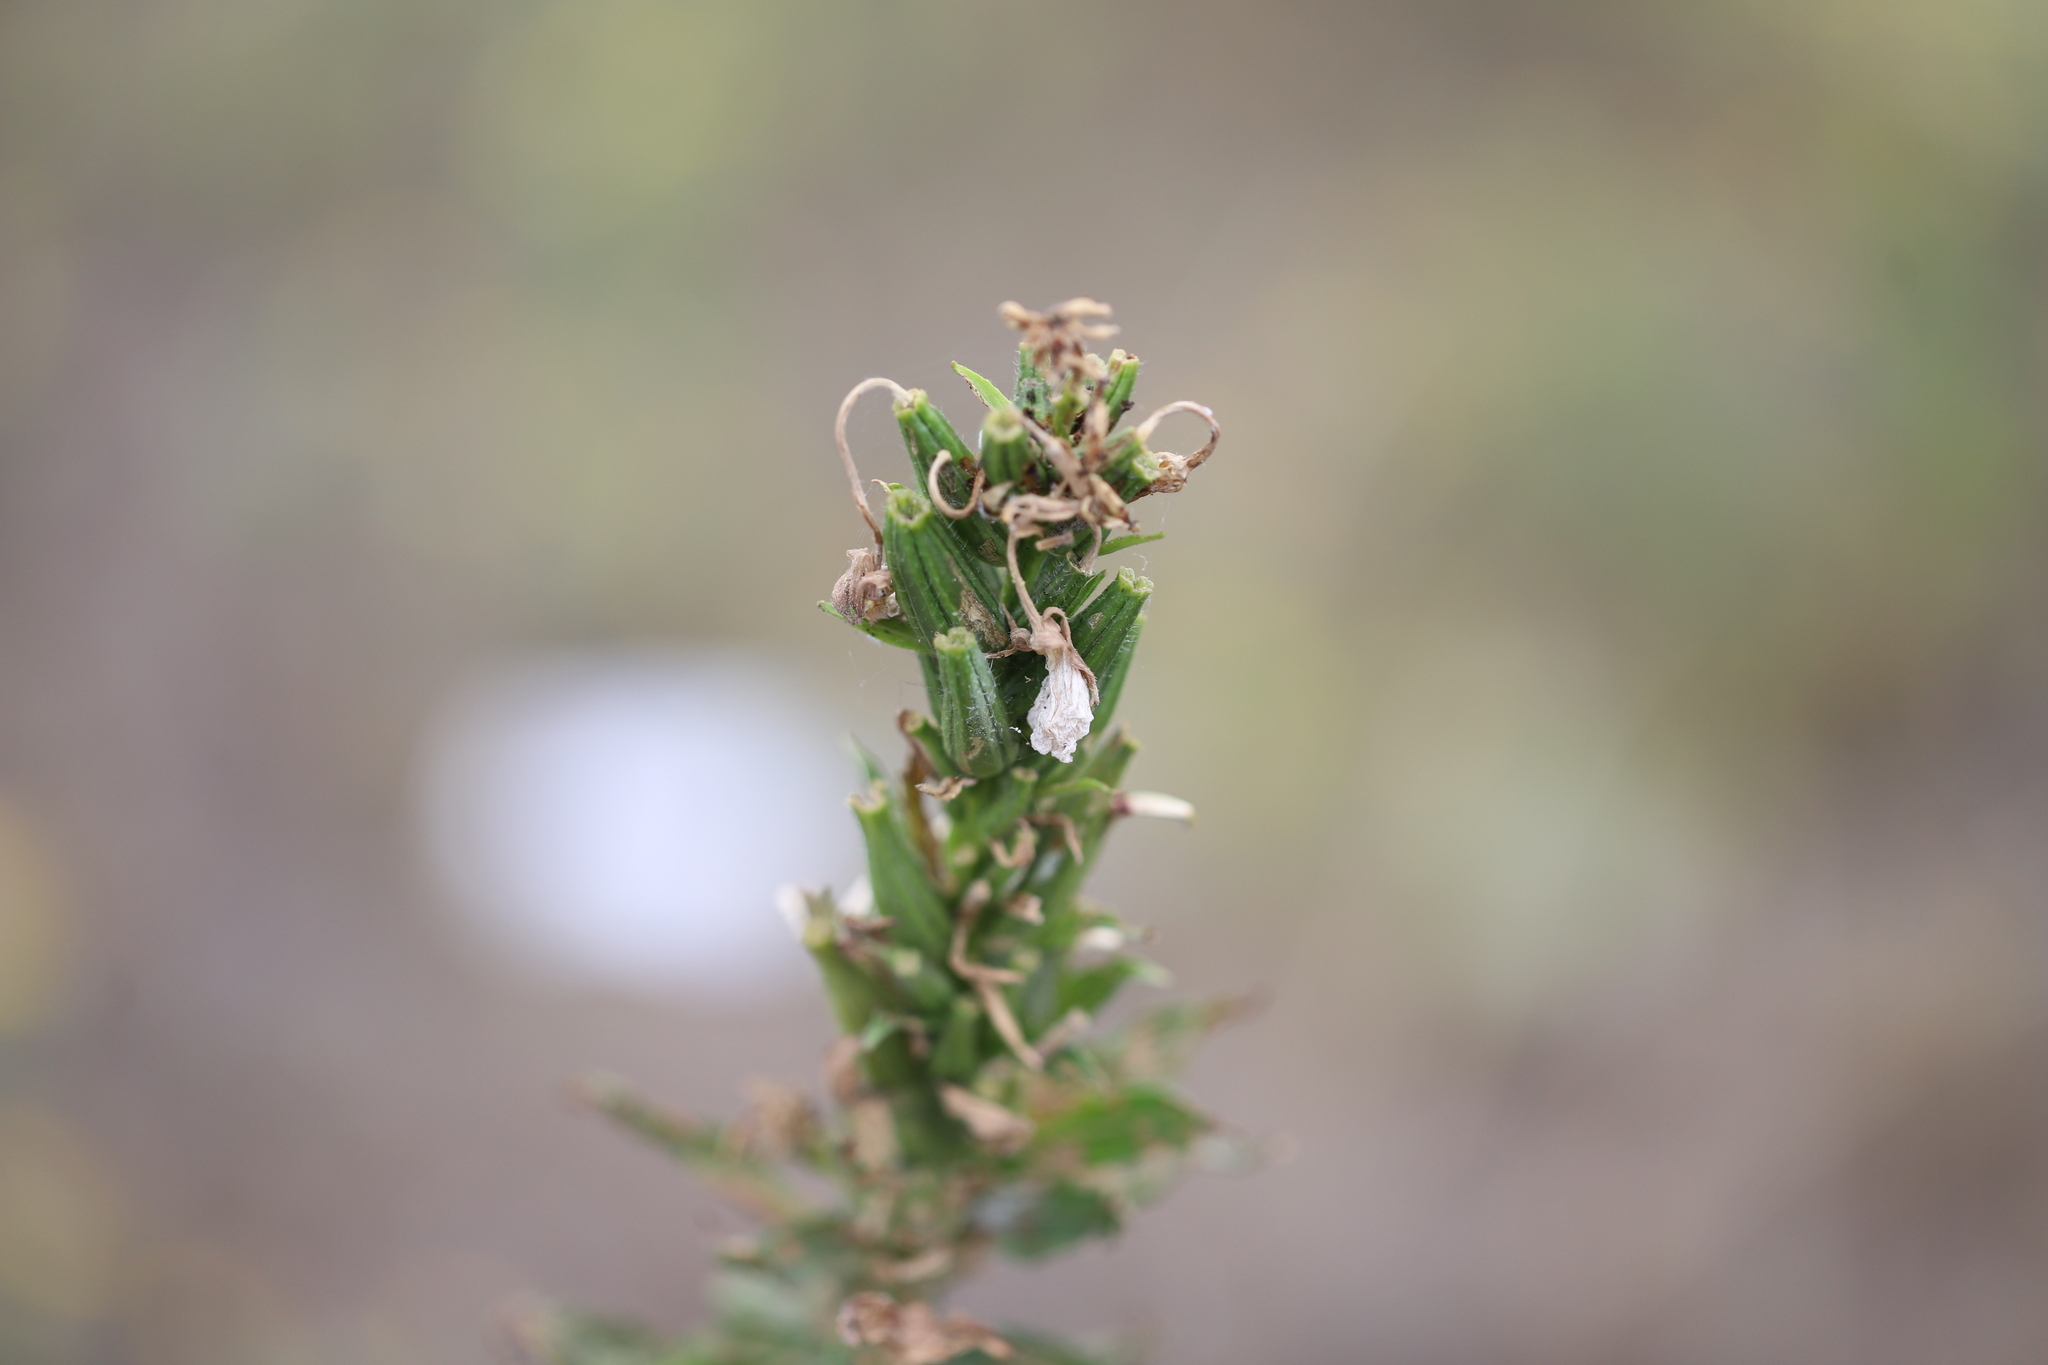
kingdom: Plantae
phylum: Tracheophyta
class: Magnoliopsida
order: Myrtales
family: Onagraceae
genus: Oenothera
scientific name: Oenothera biennis
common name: Common evening-primrose
